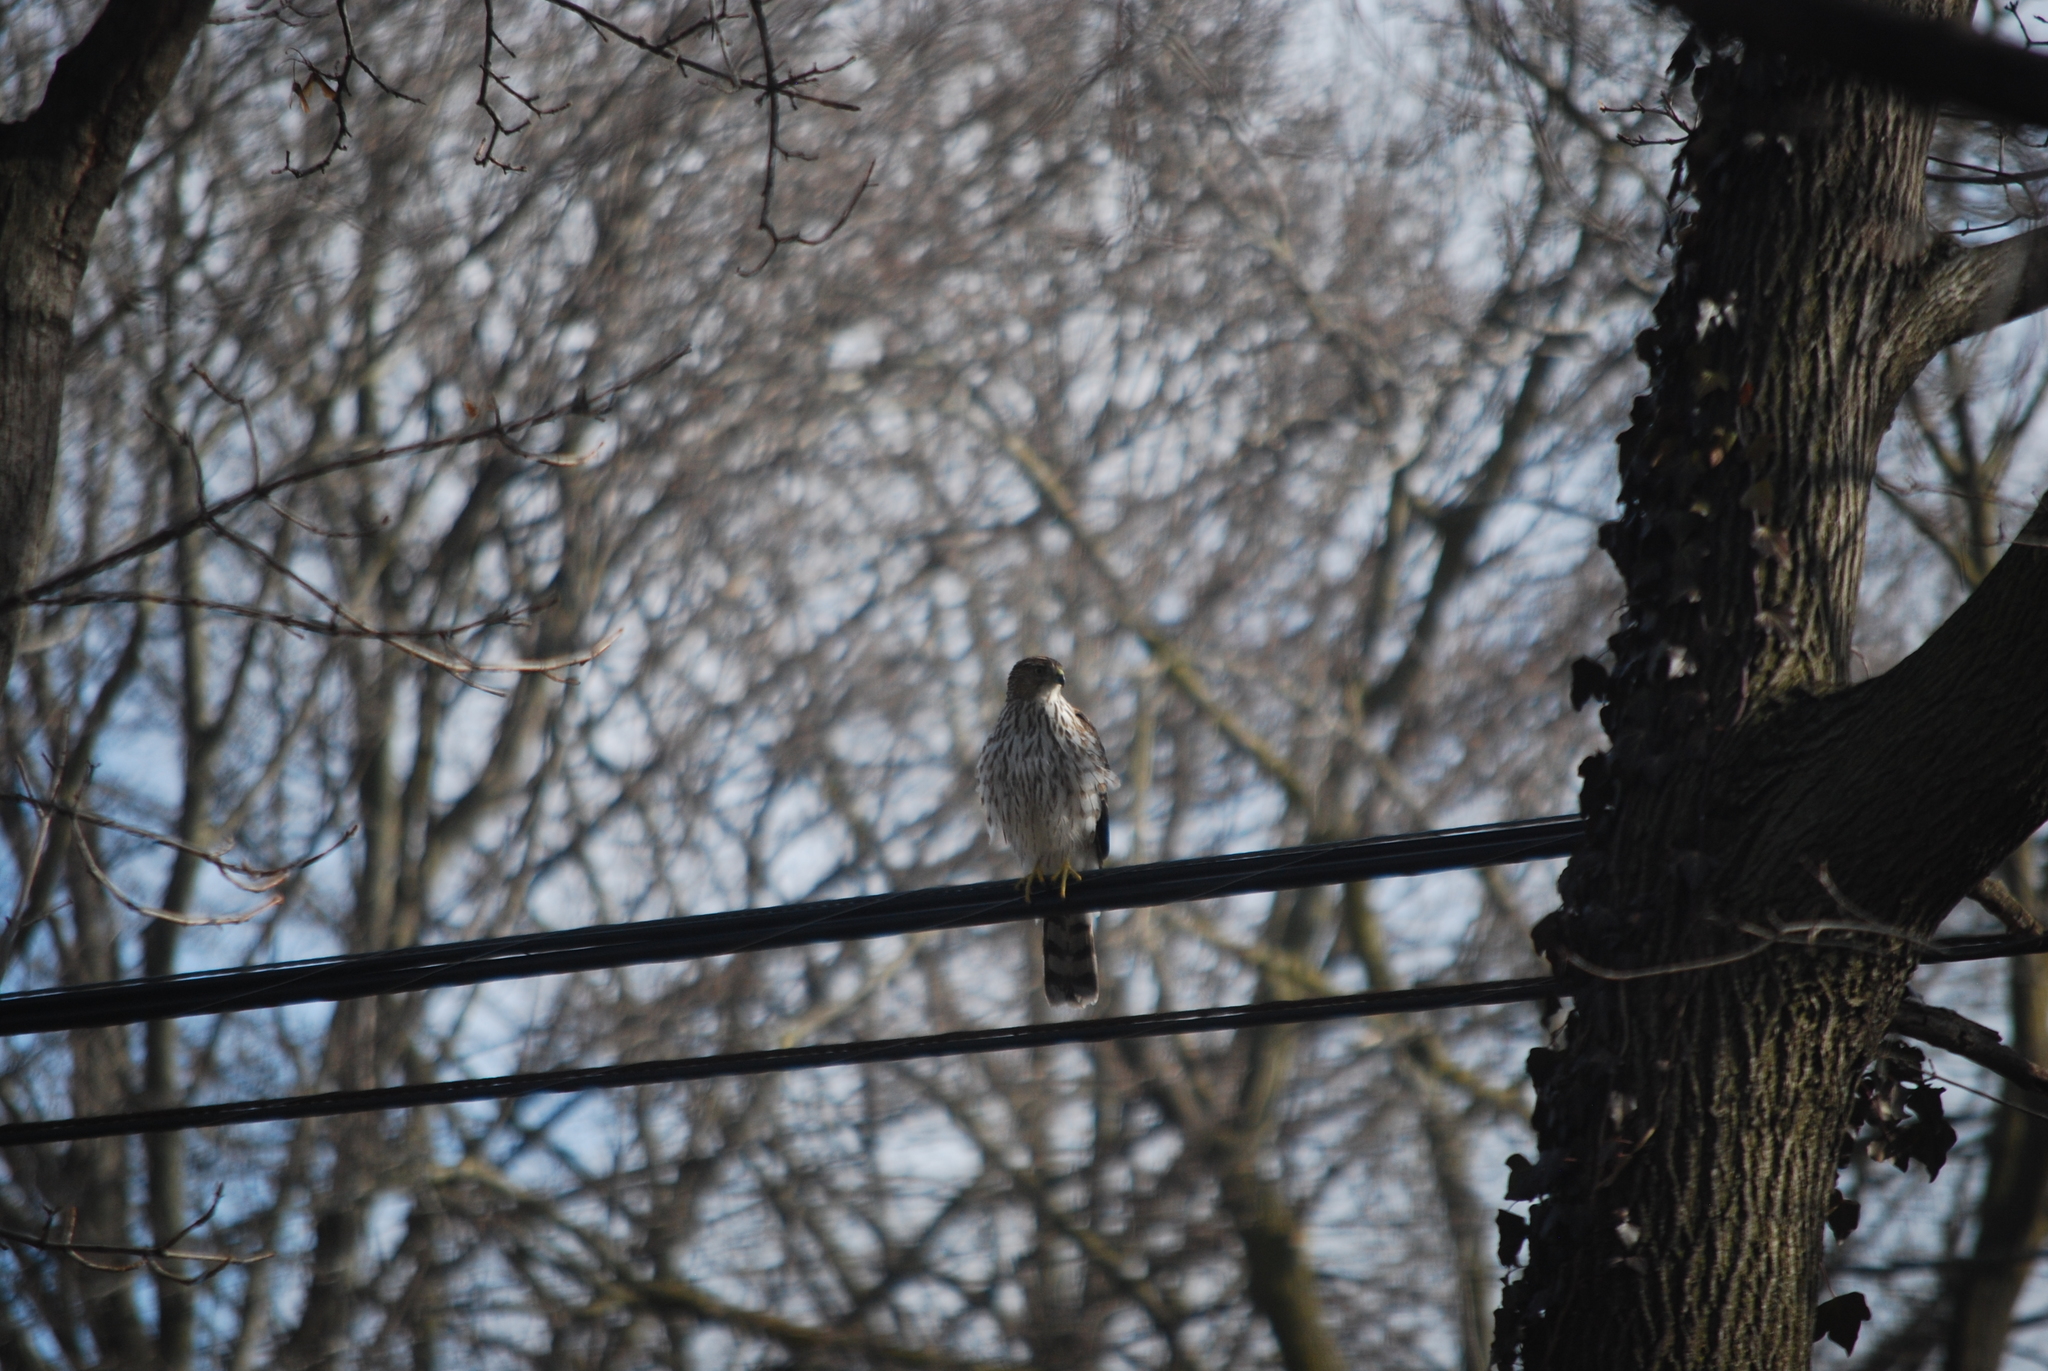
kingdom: Animalia
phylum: Chordata
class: Aves
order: Accipitriformes
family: Accipitridae
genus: Accipiter
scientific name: Accipiter cooperii
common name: Cooper's hawk
